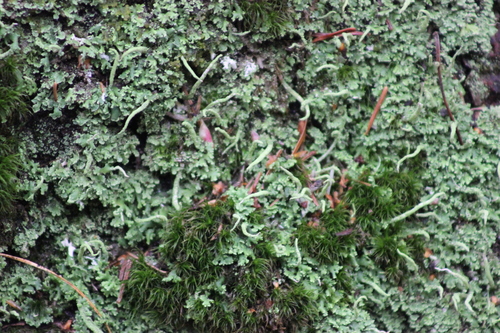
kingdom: Fungi
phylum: Ascomycota
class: Lecanoromycetes
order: Lecanorales
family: Cladoniaceae
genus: Cladonia
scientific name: Cladonia
